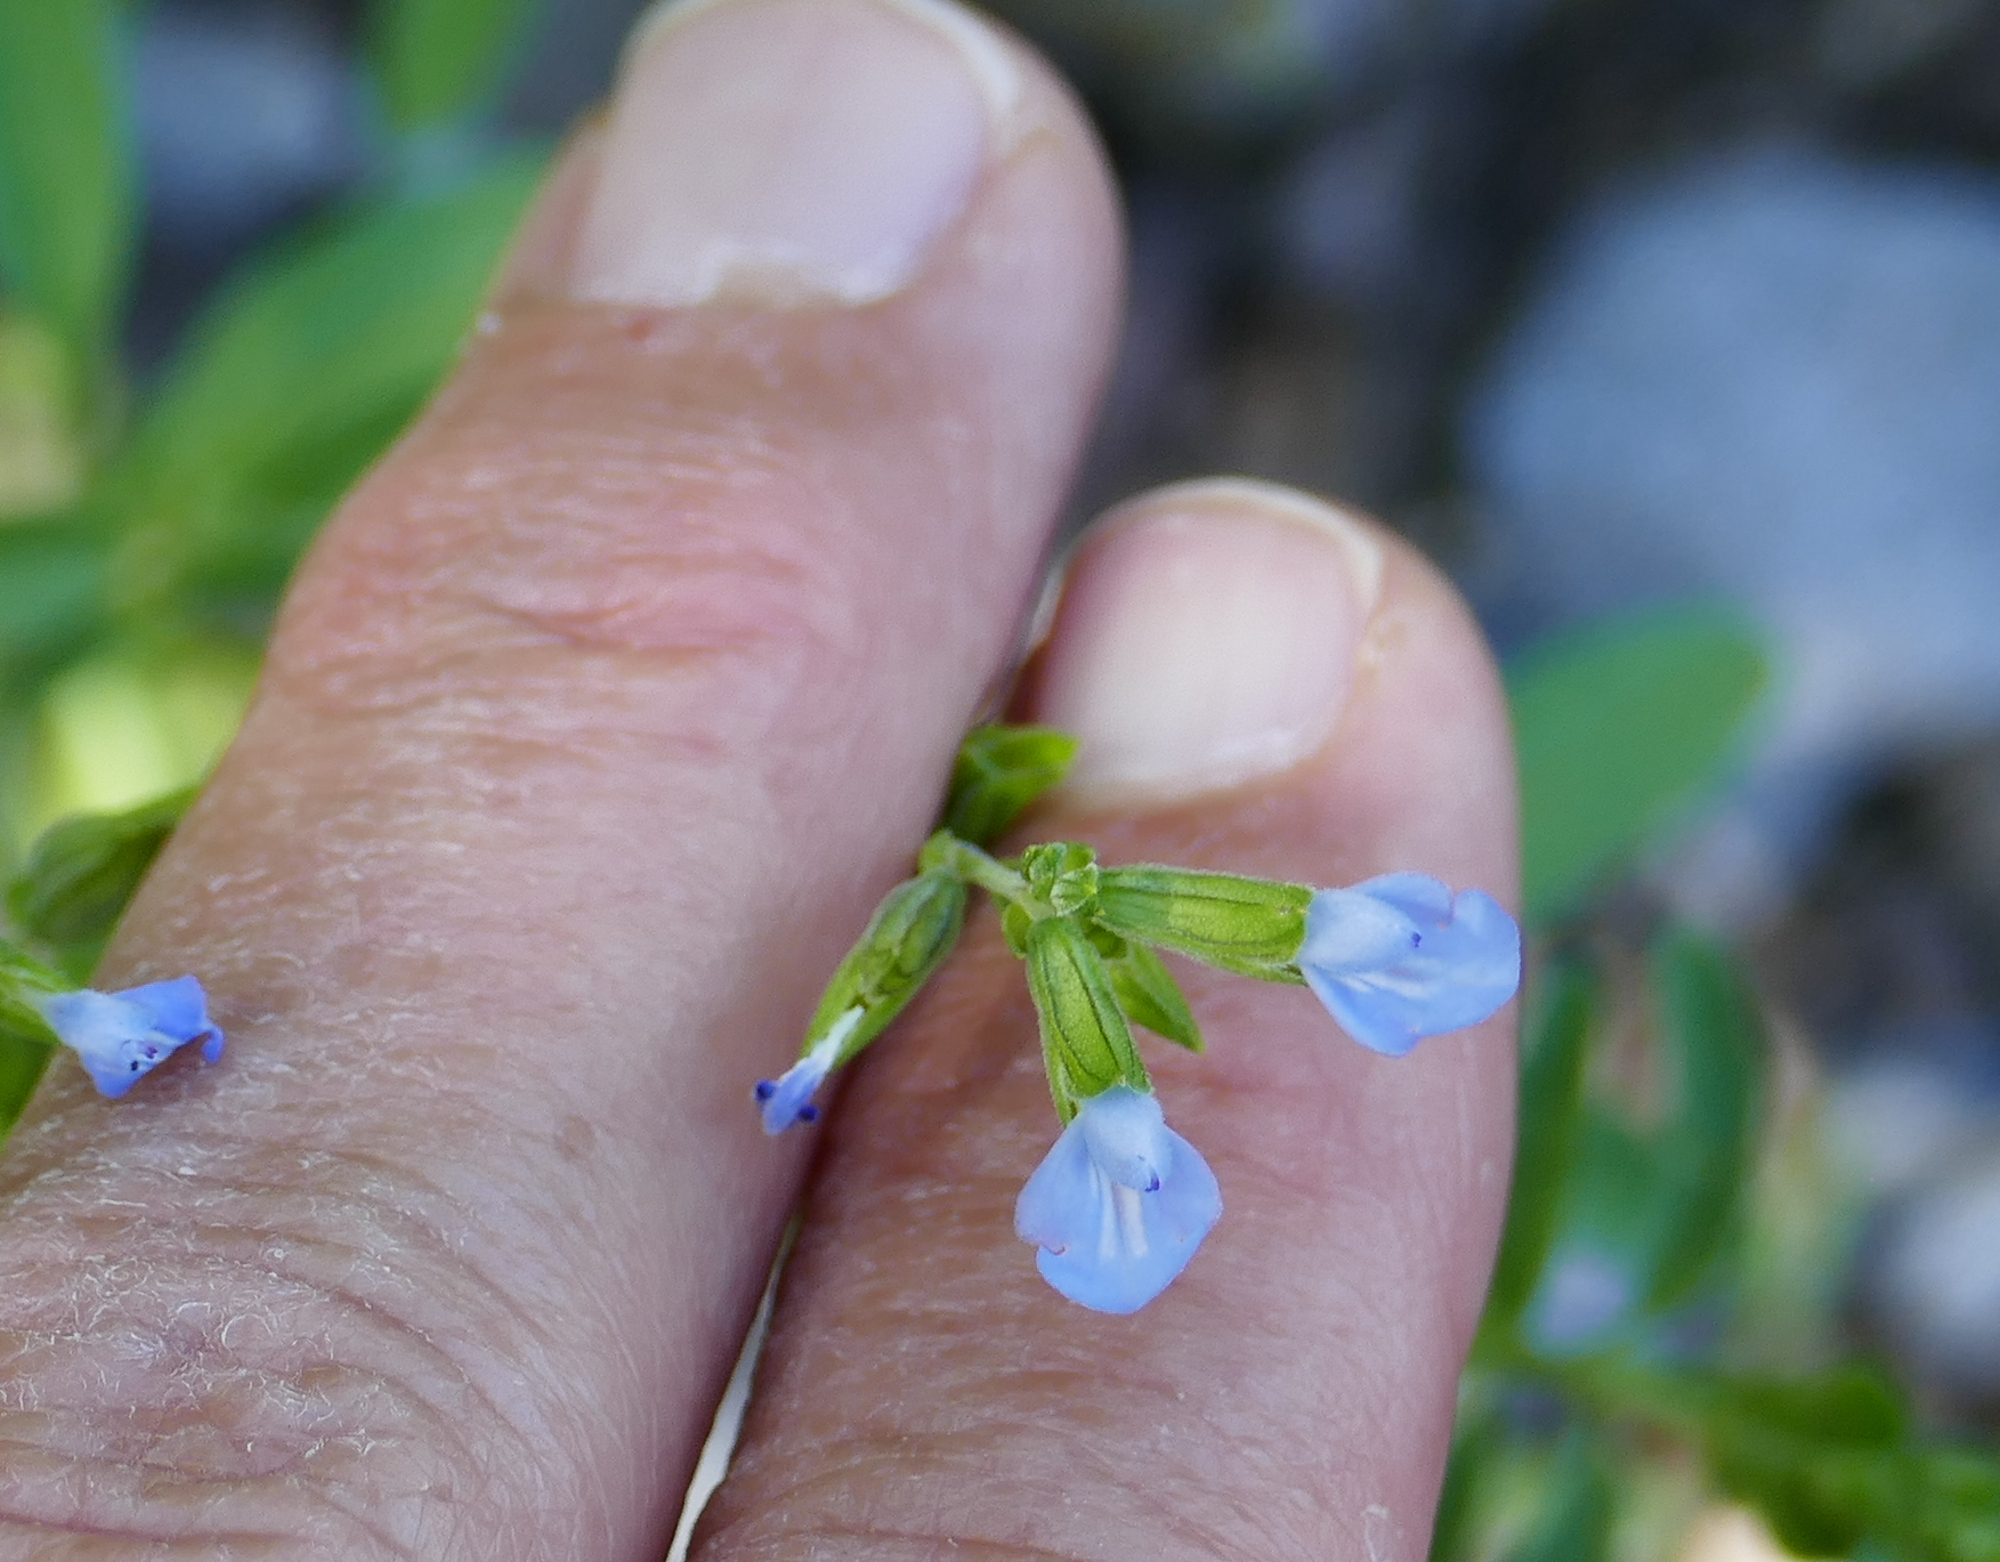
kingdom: Plantae
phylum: Tracheophyta
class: Magnoliopsida
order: Lamiales
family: Lamiaceae
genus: Salvia
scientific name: Salvia reflexa
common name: Mintweed
